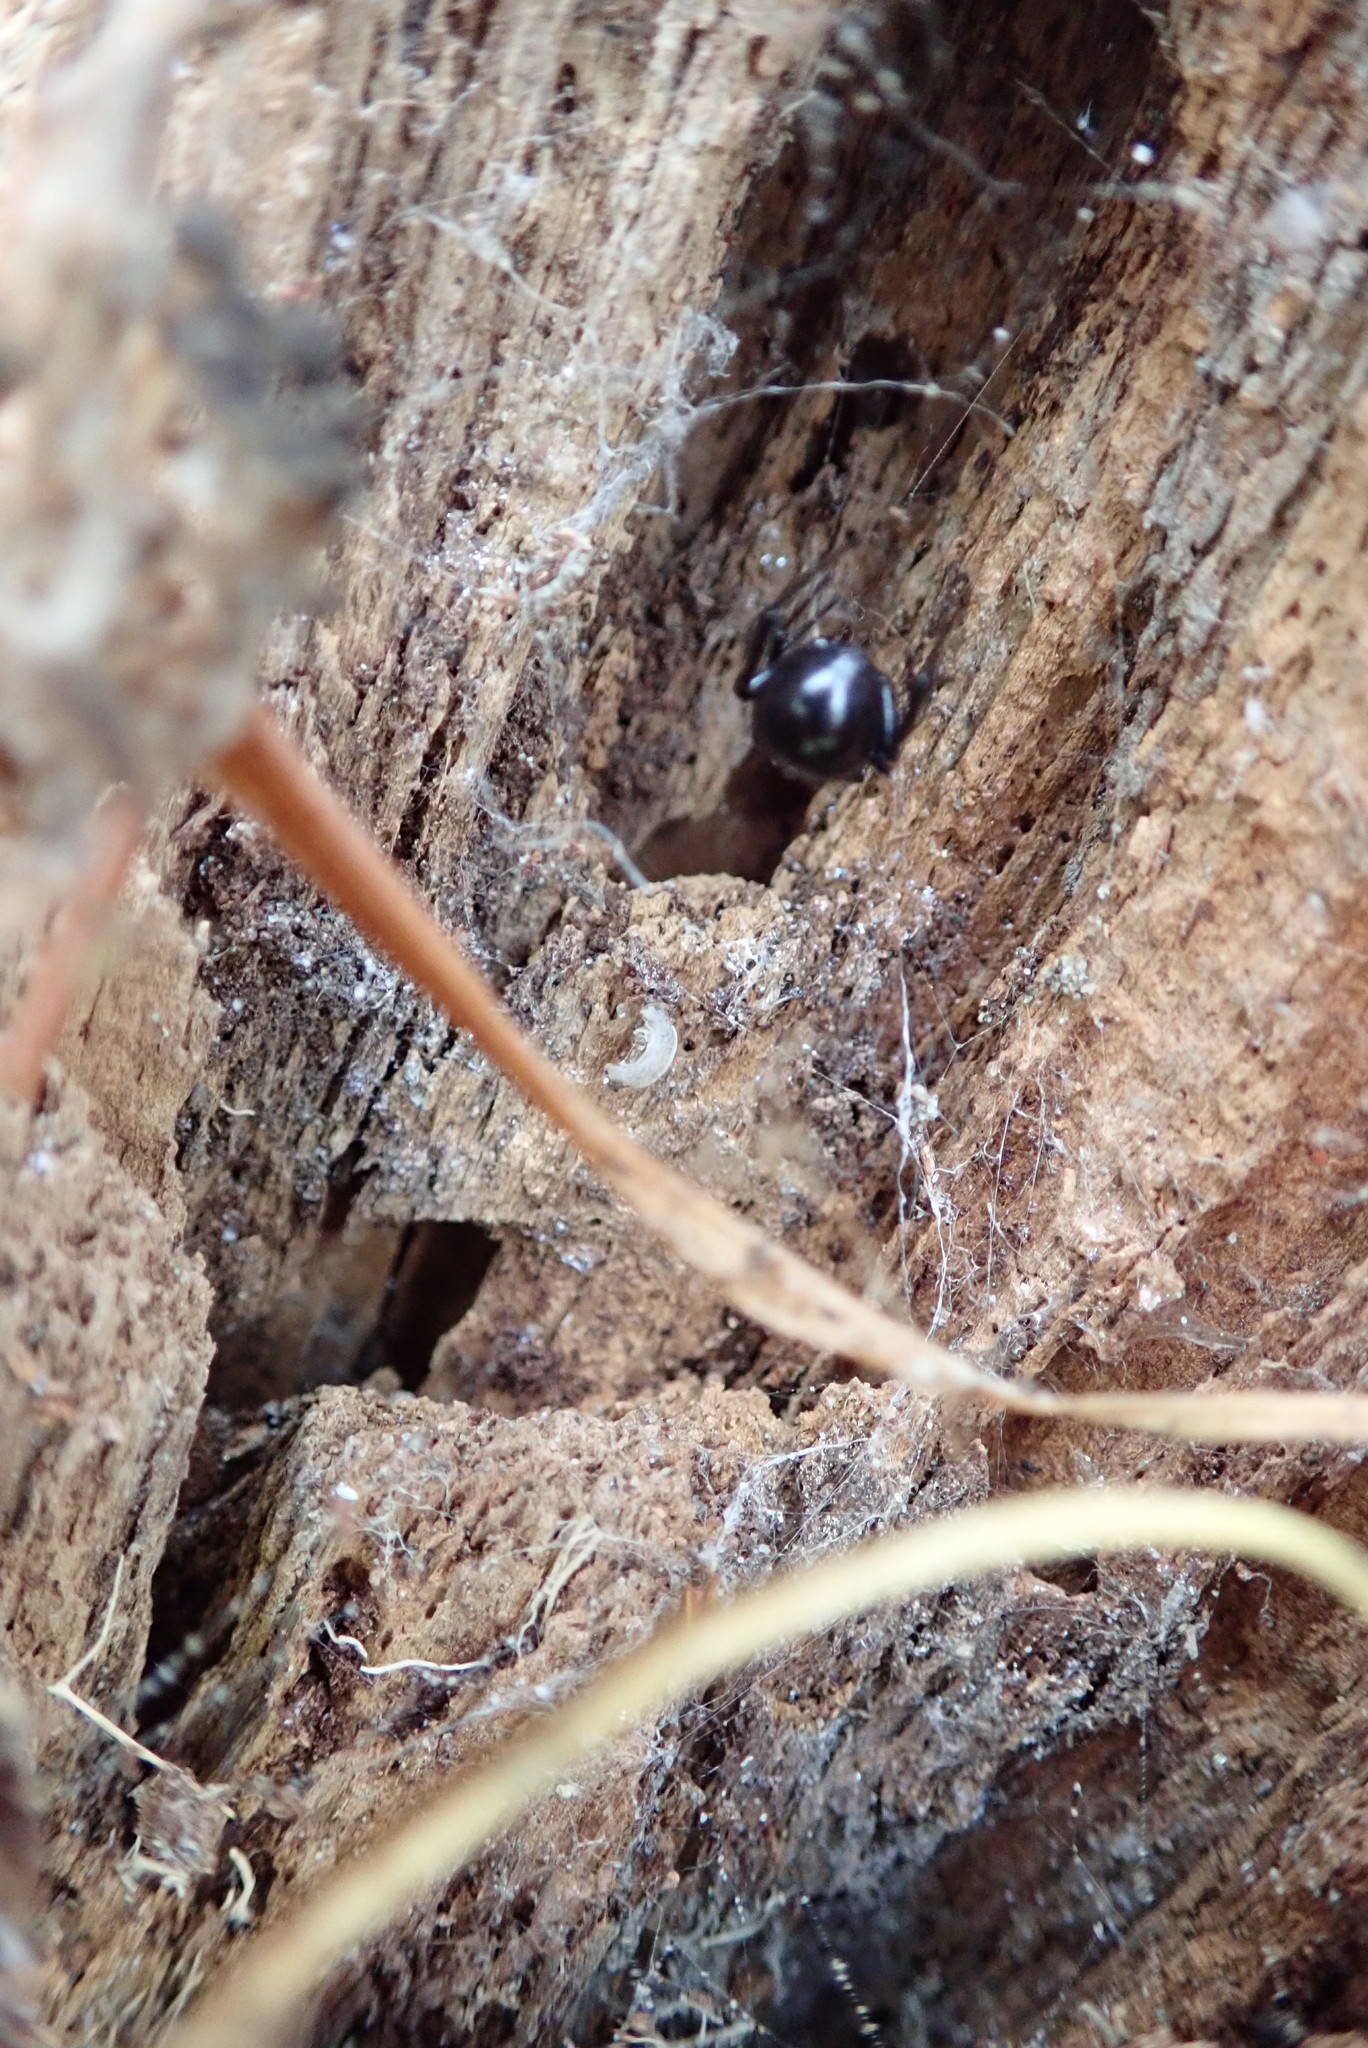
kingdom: Animalia
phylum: Arthropoda
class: Arachnida
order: Araneae
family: Theridiidae
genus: Steatoda
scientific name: Steatoda capensis
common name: Cobweb weaver
